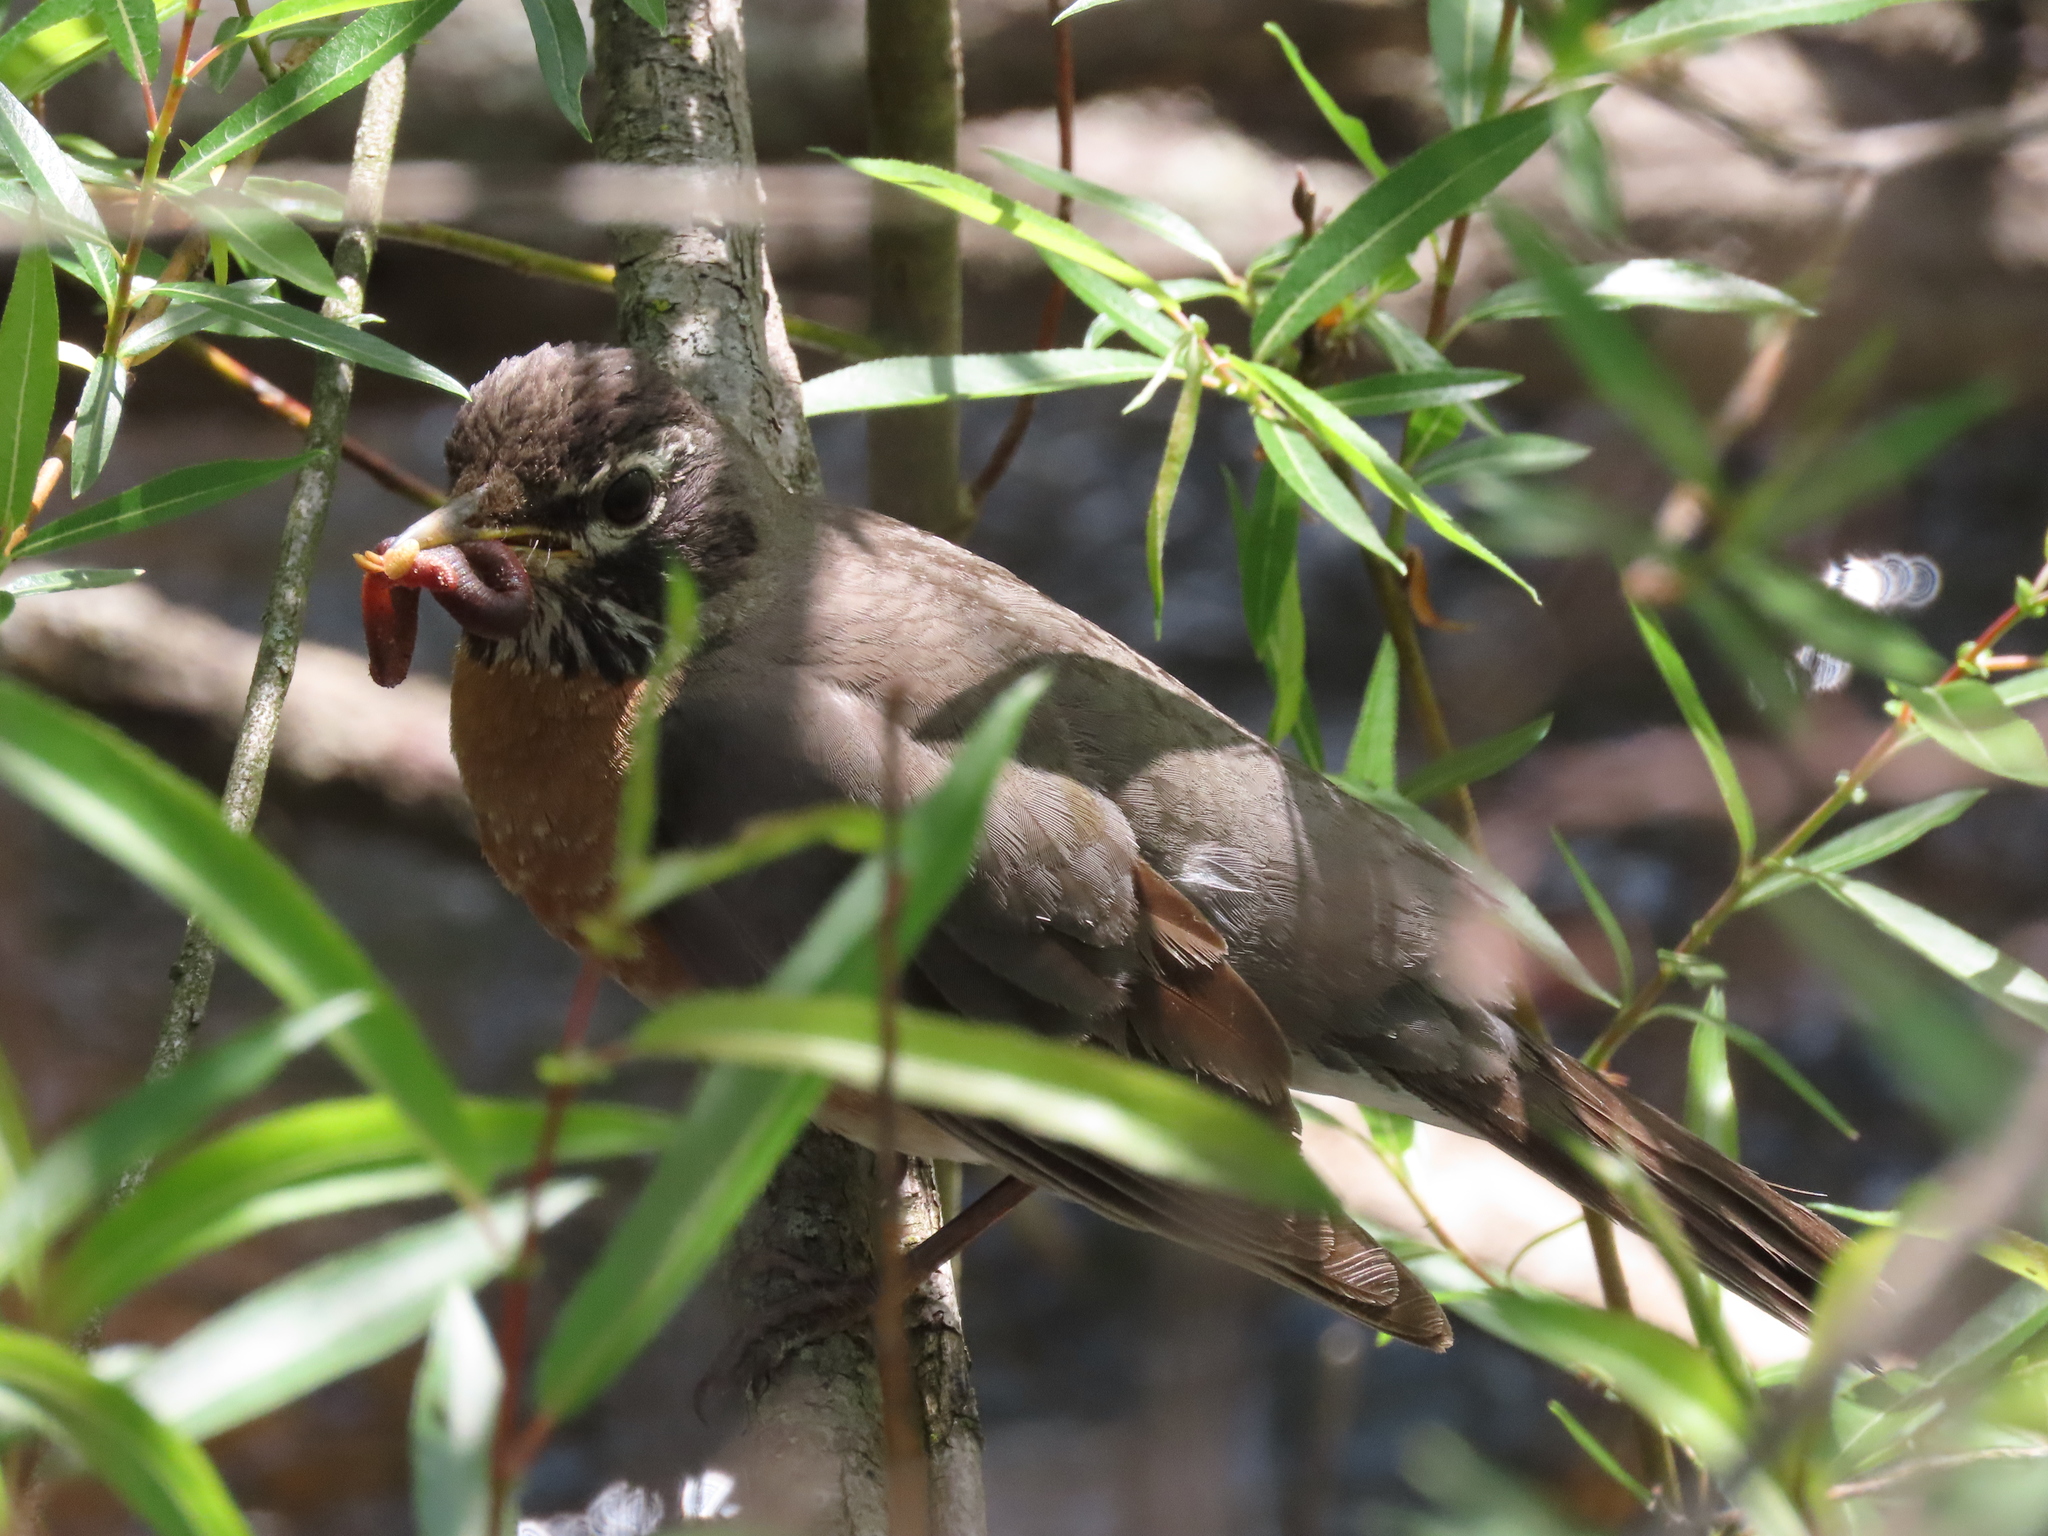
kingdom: Animalia
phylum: Chordata
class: Aves
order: Passeriformes
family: Turdidae
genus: Turdus
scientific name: Turdus migratorius
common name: American robin
